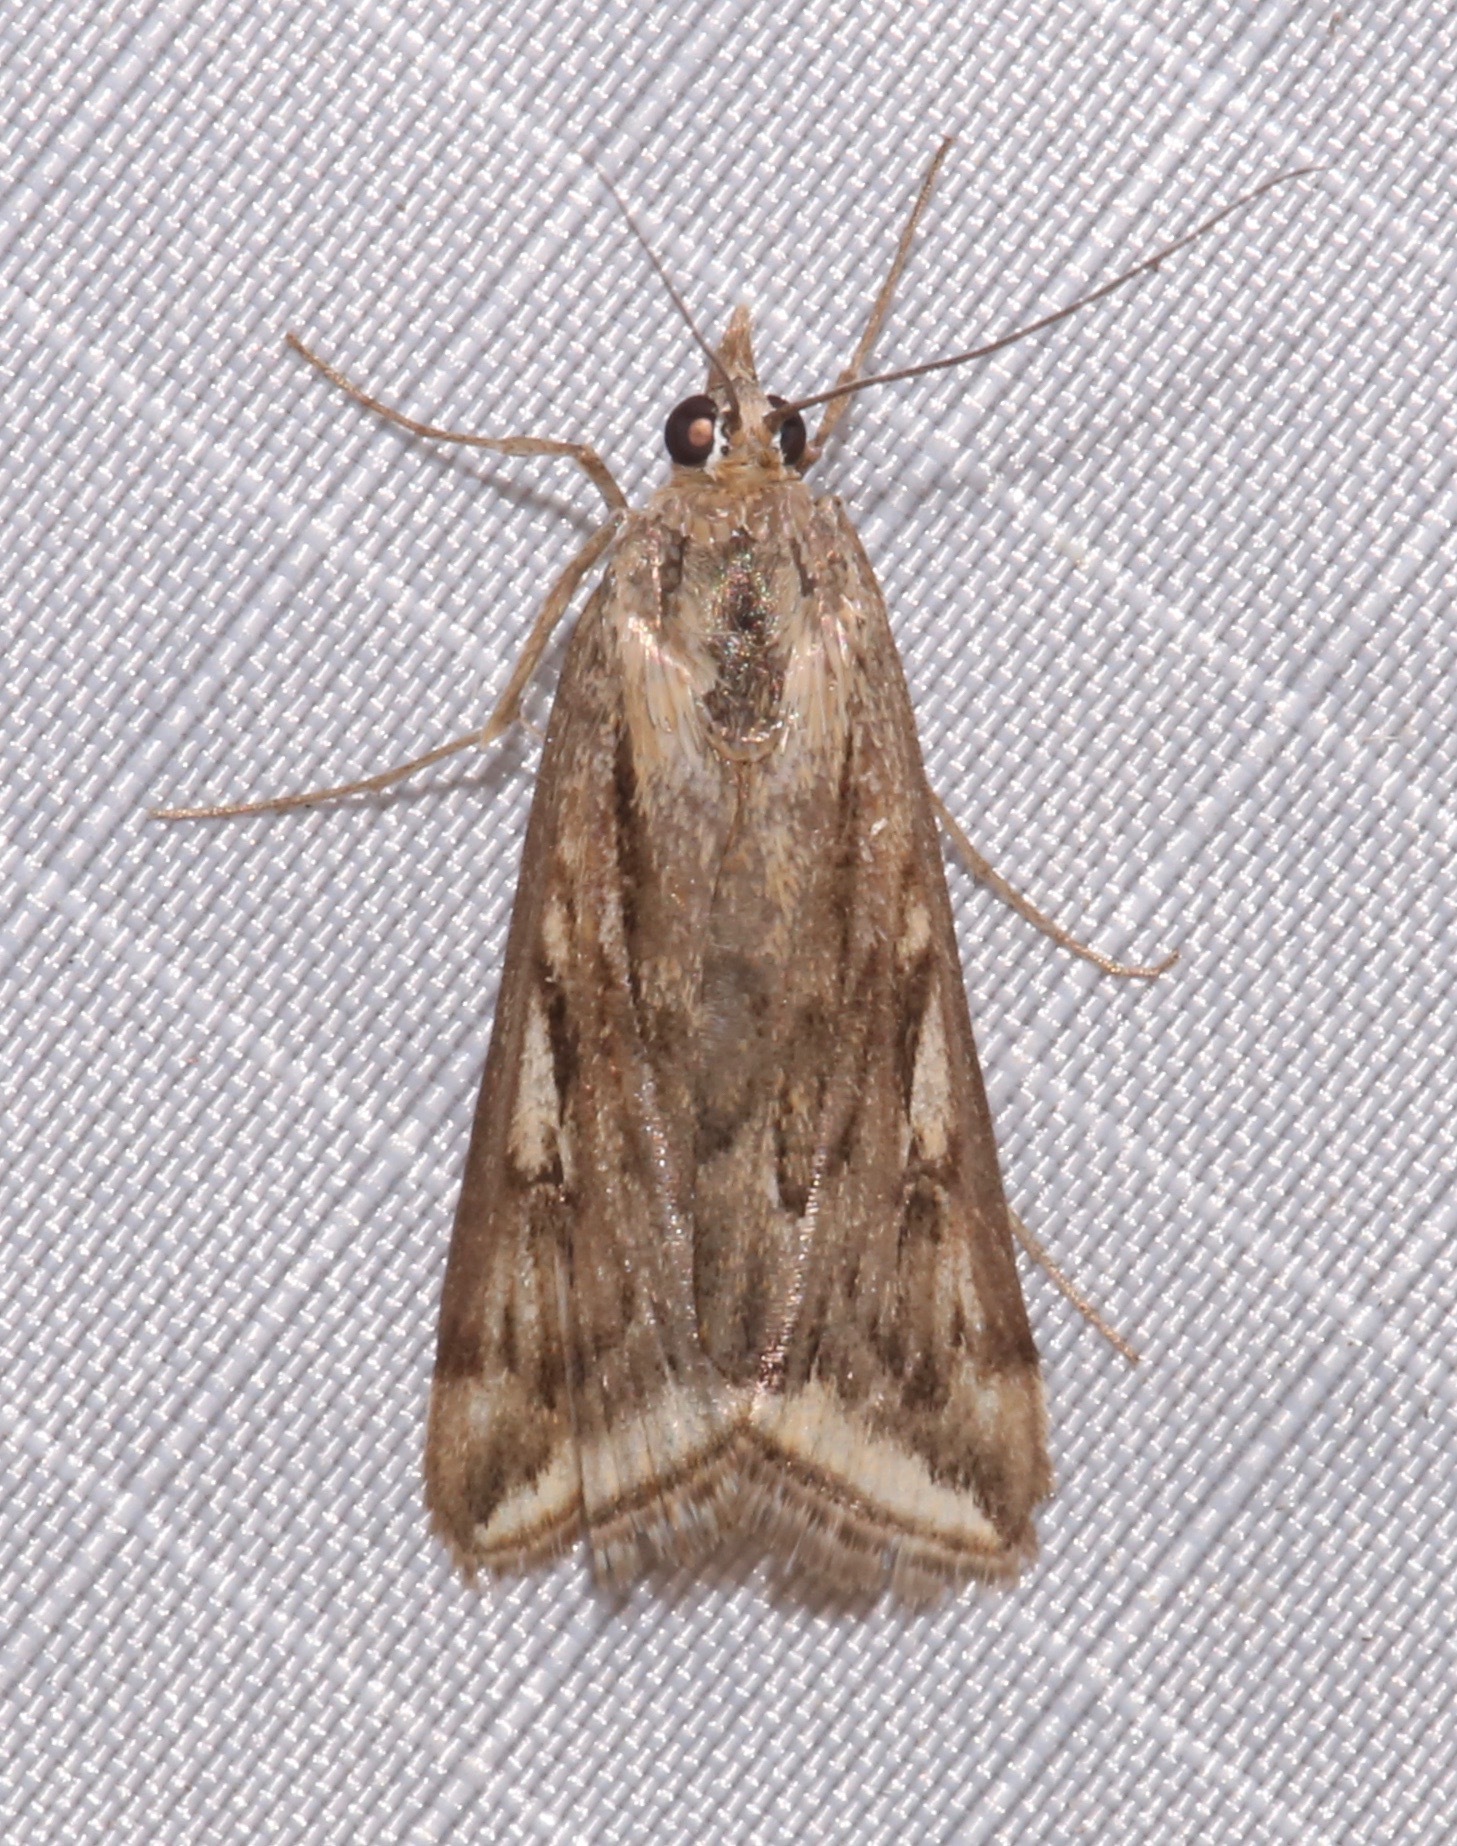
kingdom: Animalia
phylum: Arthropoda
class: Insecta
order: Lepidoptera
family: Crambidae
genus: Loxostege
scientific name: Loxostege cereralis
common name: Alfalfa webworm moth
